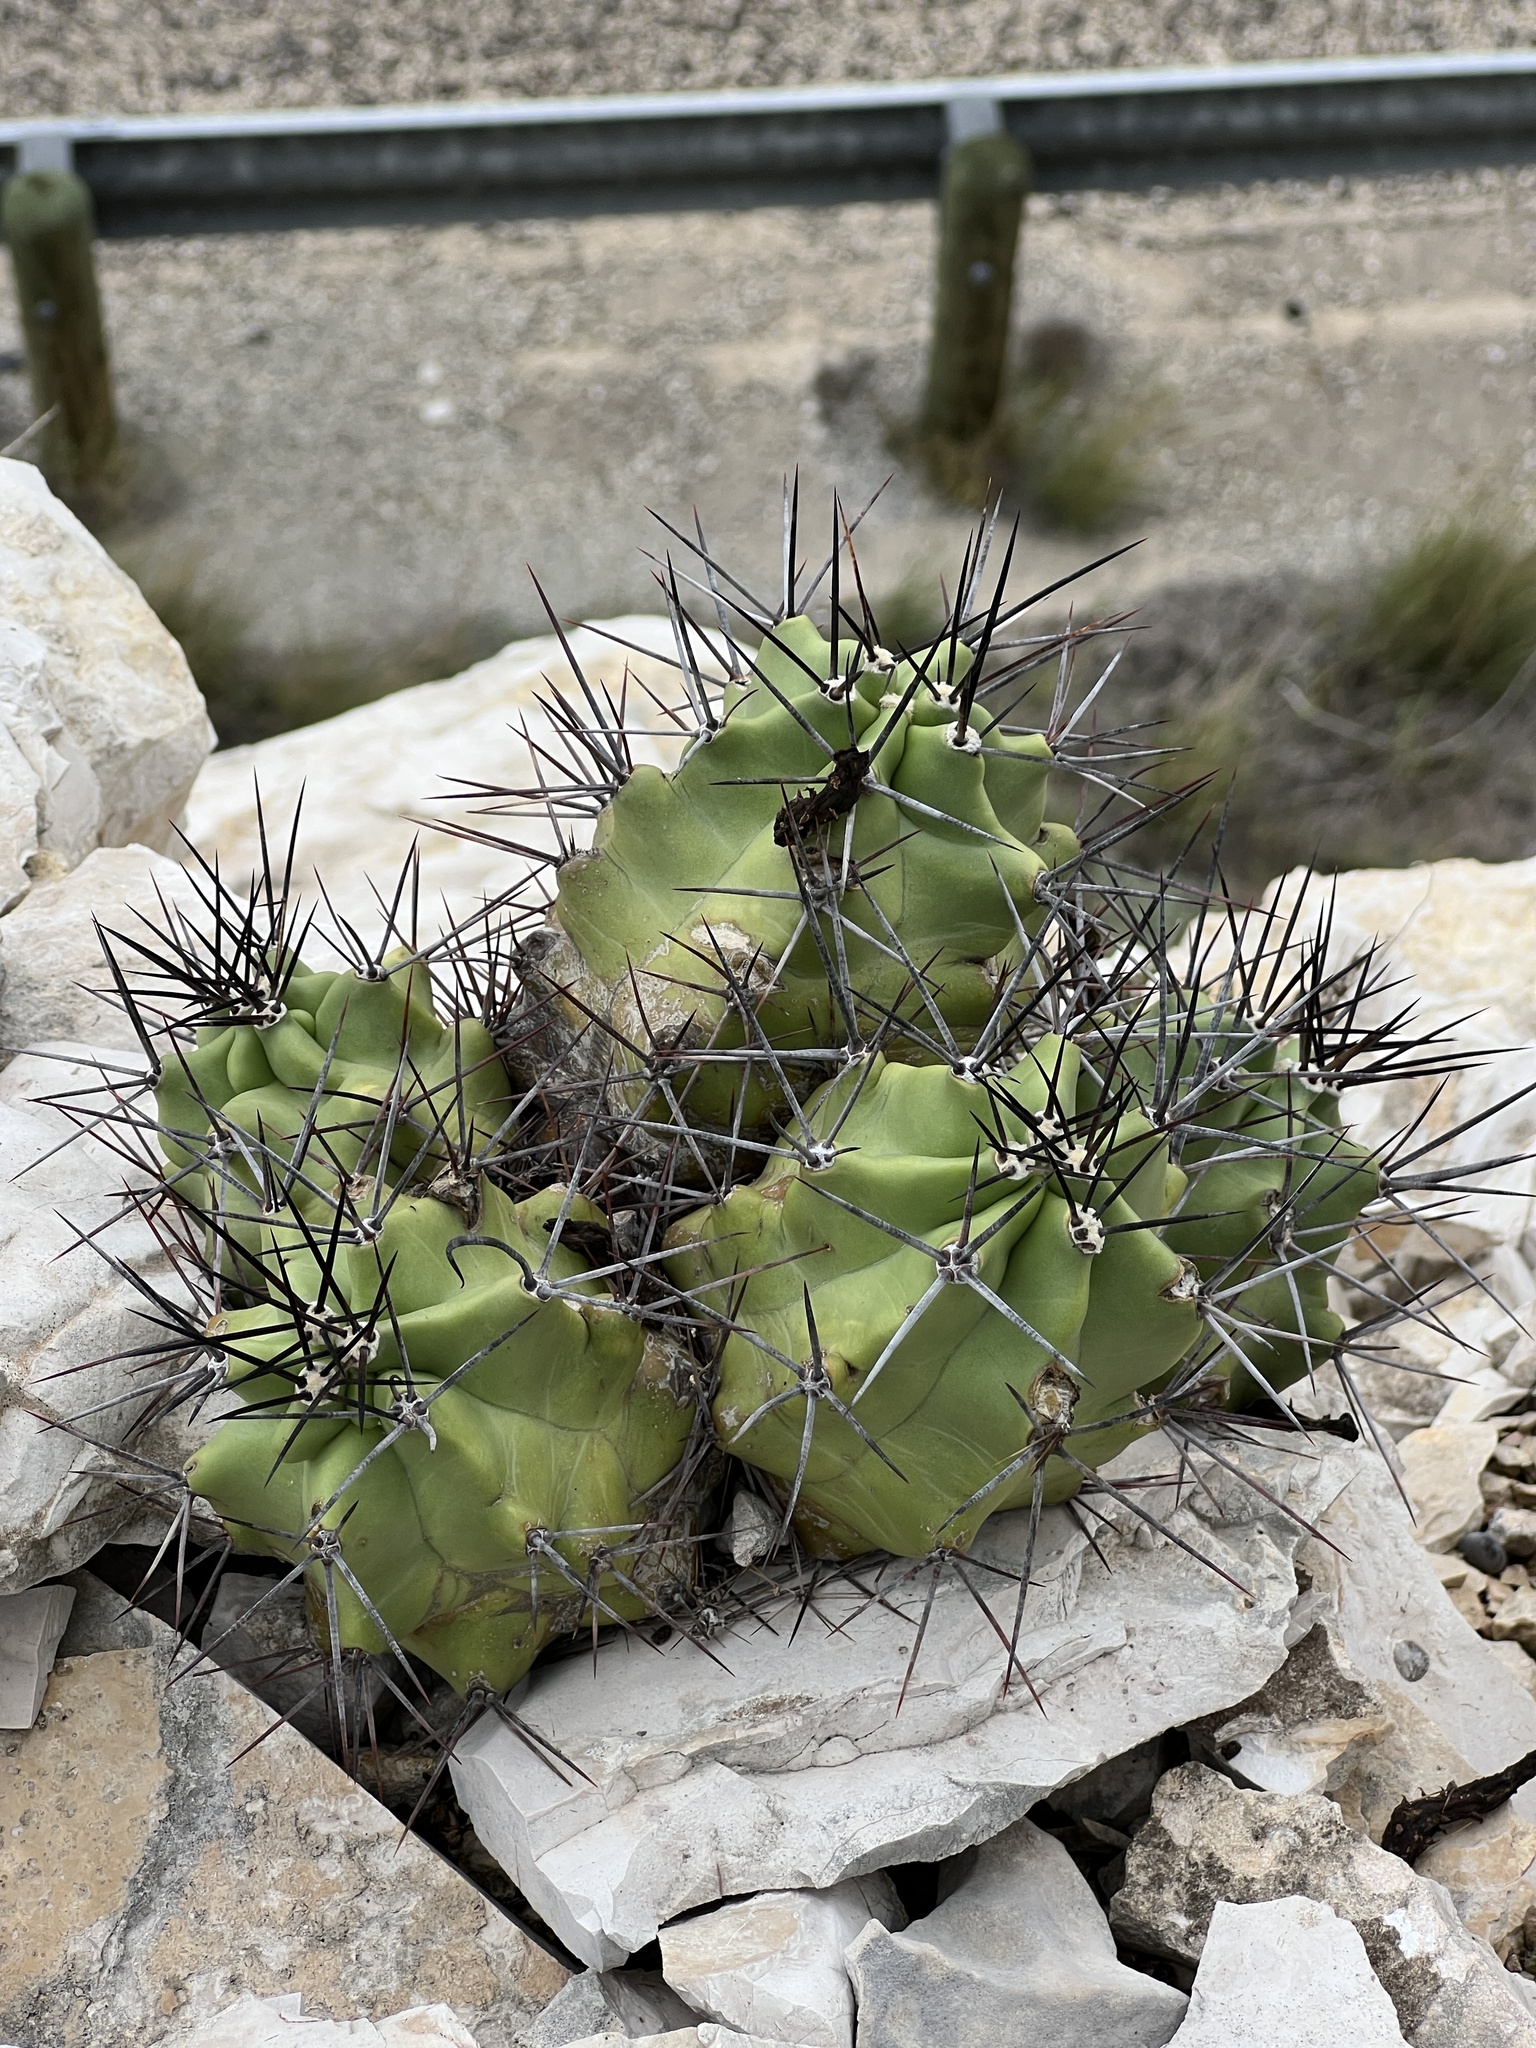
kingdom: Plantae
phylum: Tracheophyta
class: Magnoliopsida
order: Caryophyllales
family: Cactaceae
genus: Echinocereus
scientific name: Echinocereus coccineus
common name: Scarlet hedgehog cactus
